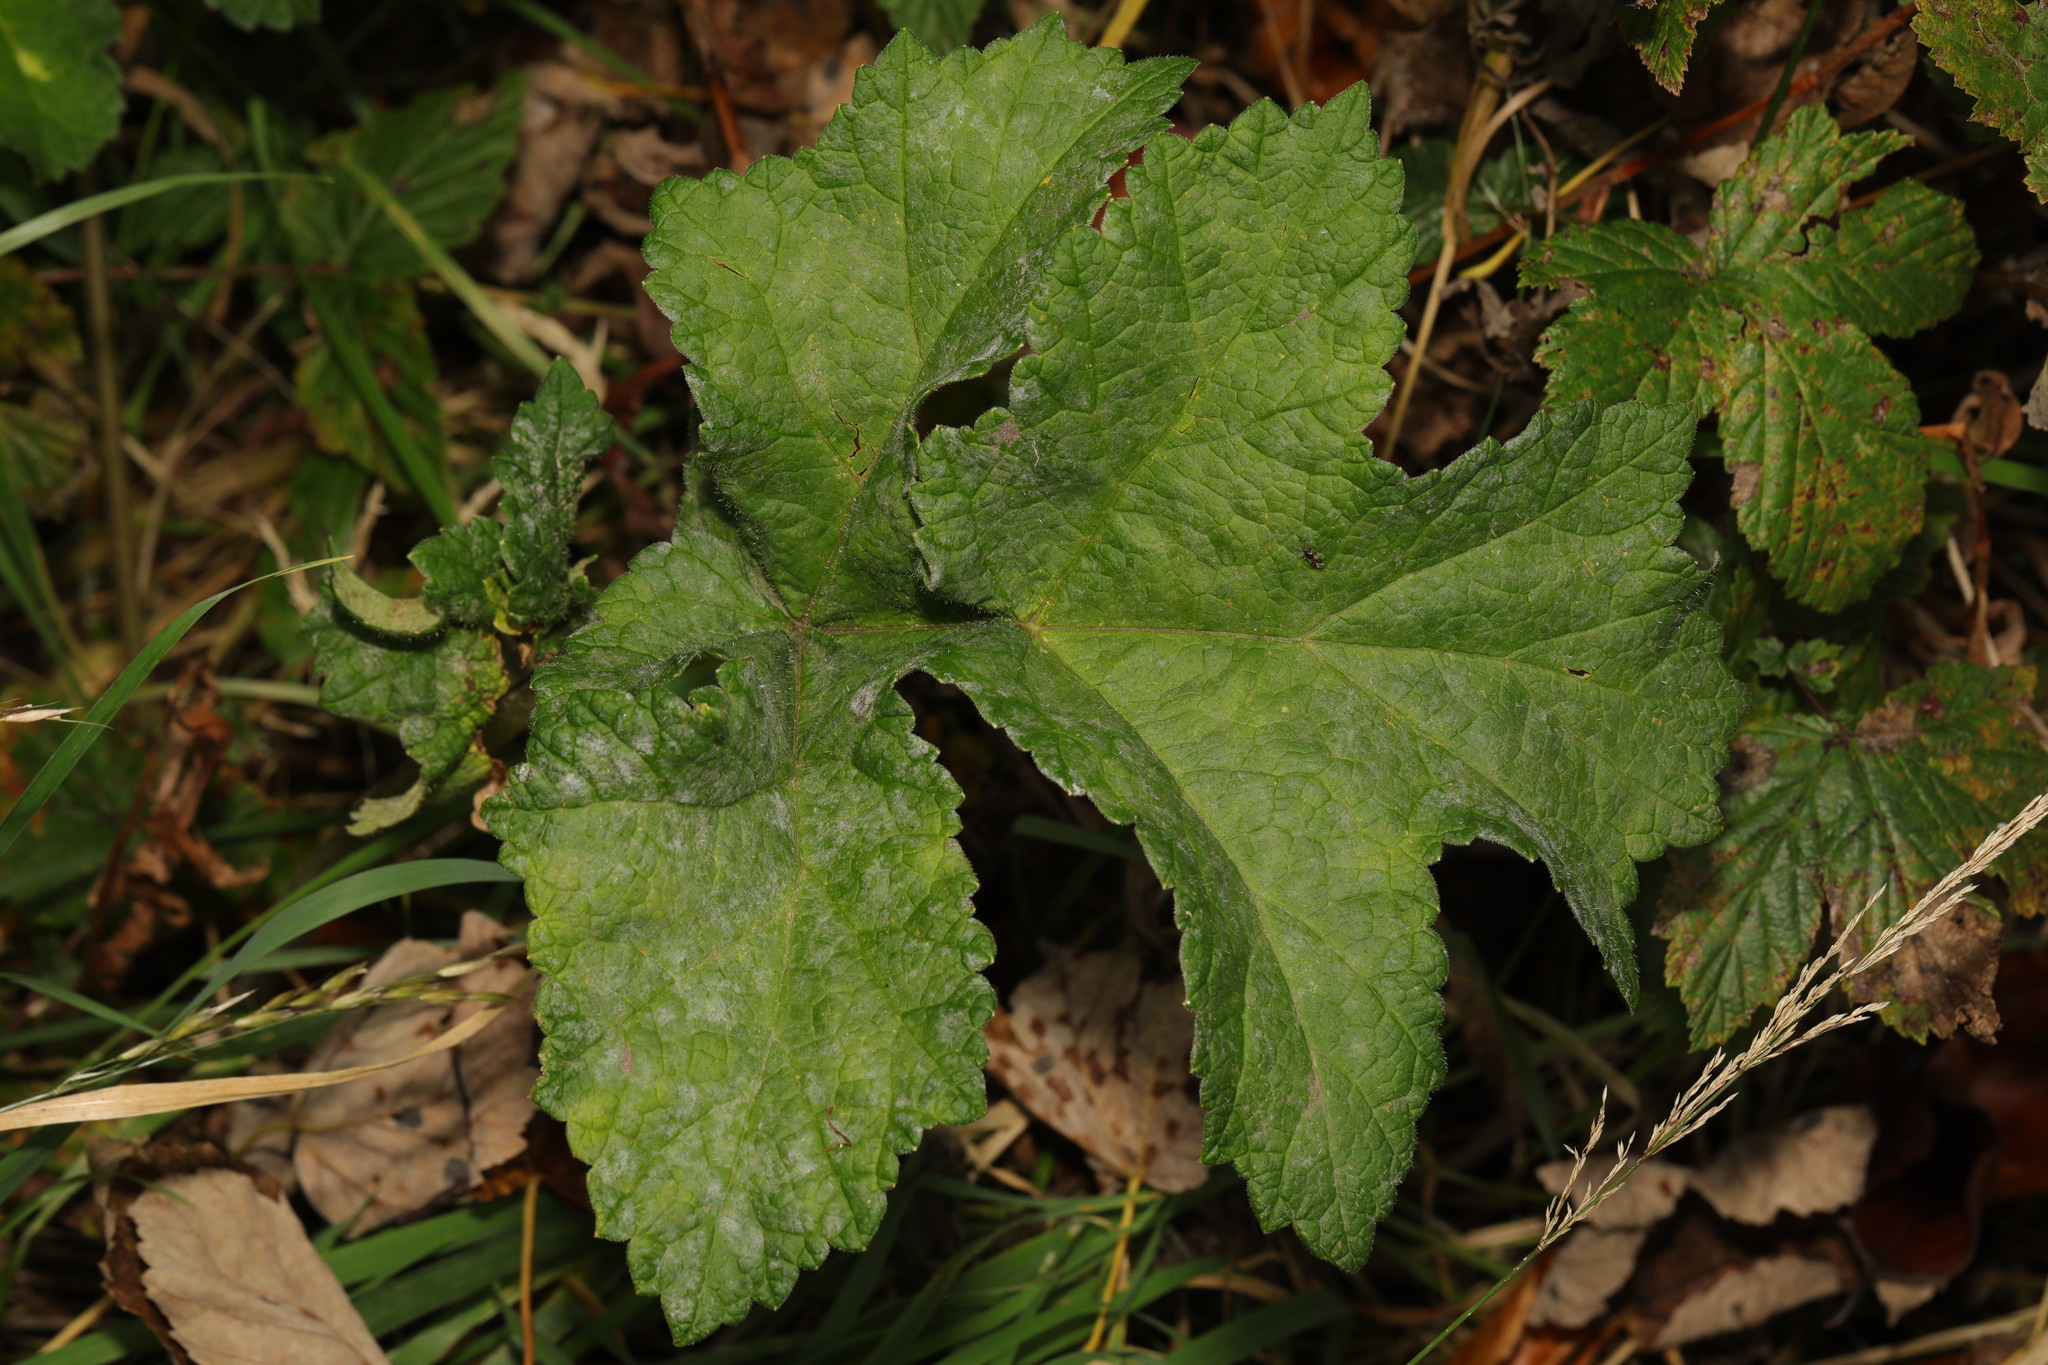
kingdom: Plantae
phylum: Tracheophyta
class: Magnoliopsida
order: Apiales
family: Apiaceae
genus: Heracleum
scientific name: Heracleum sphondylium
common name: Hogweed
